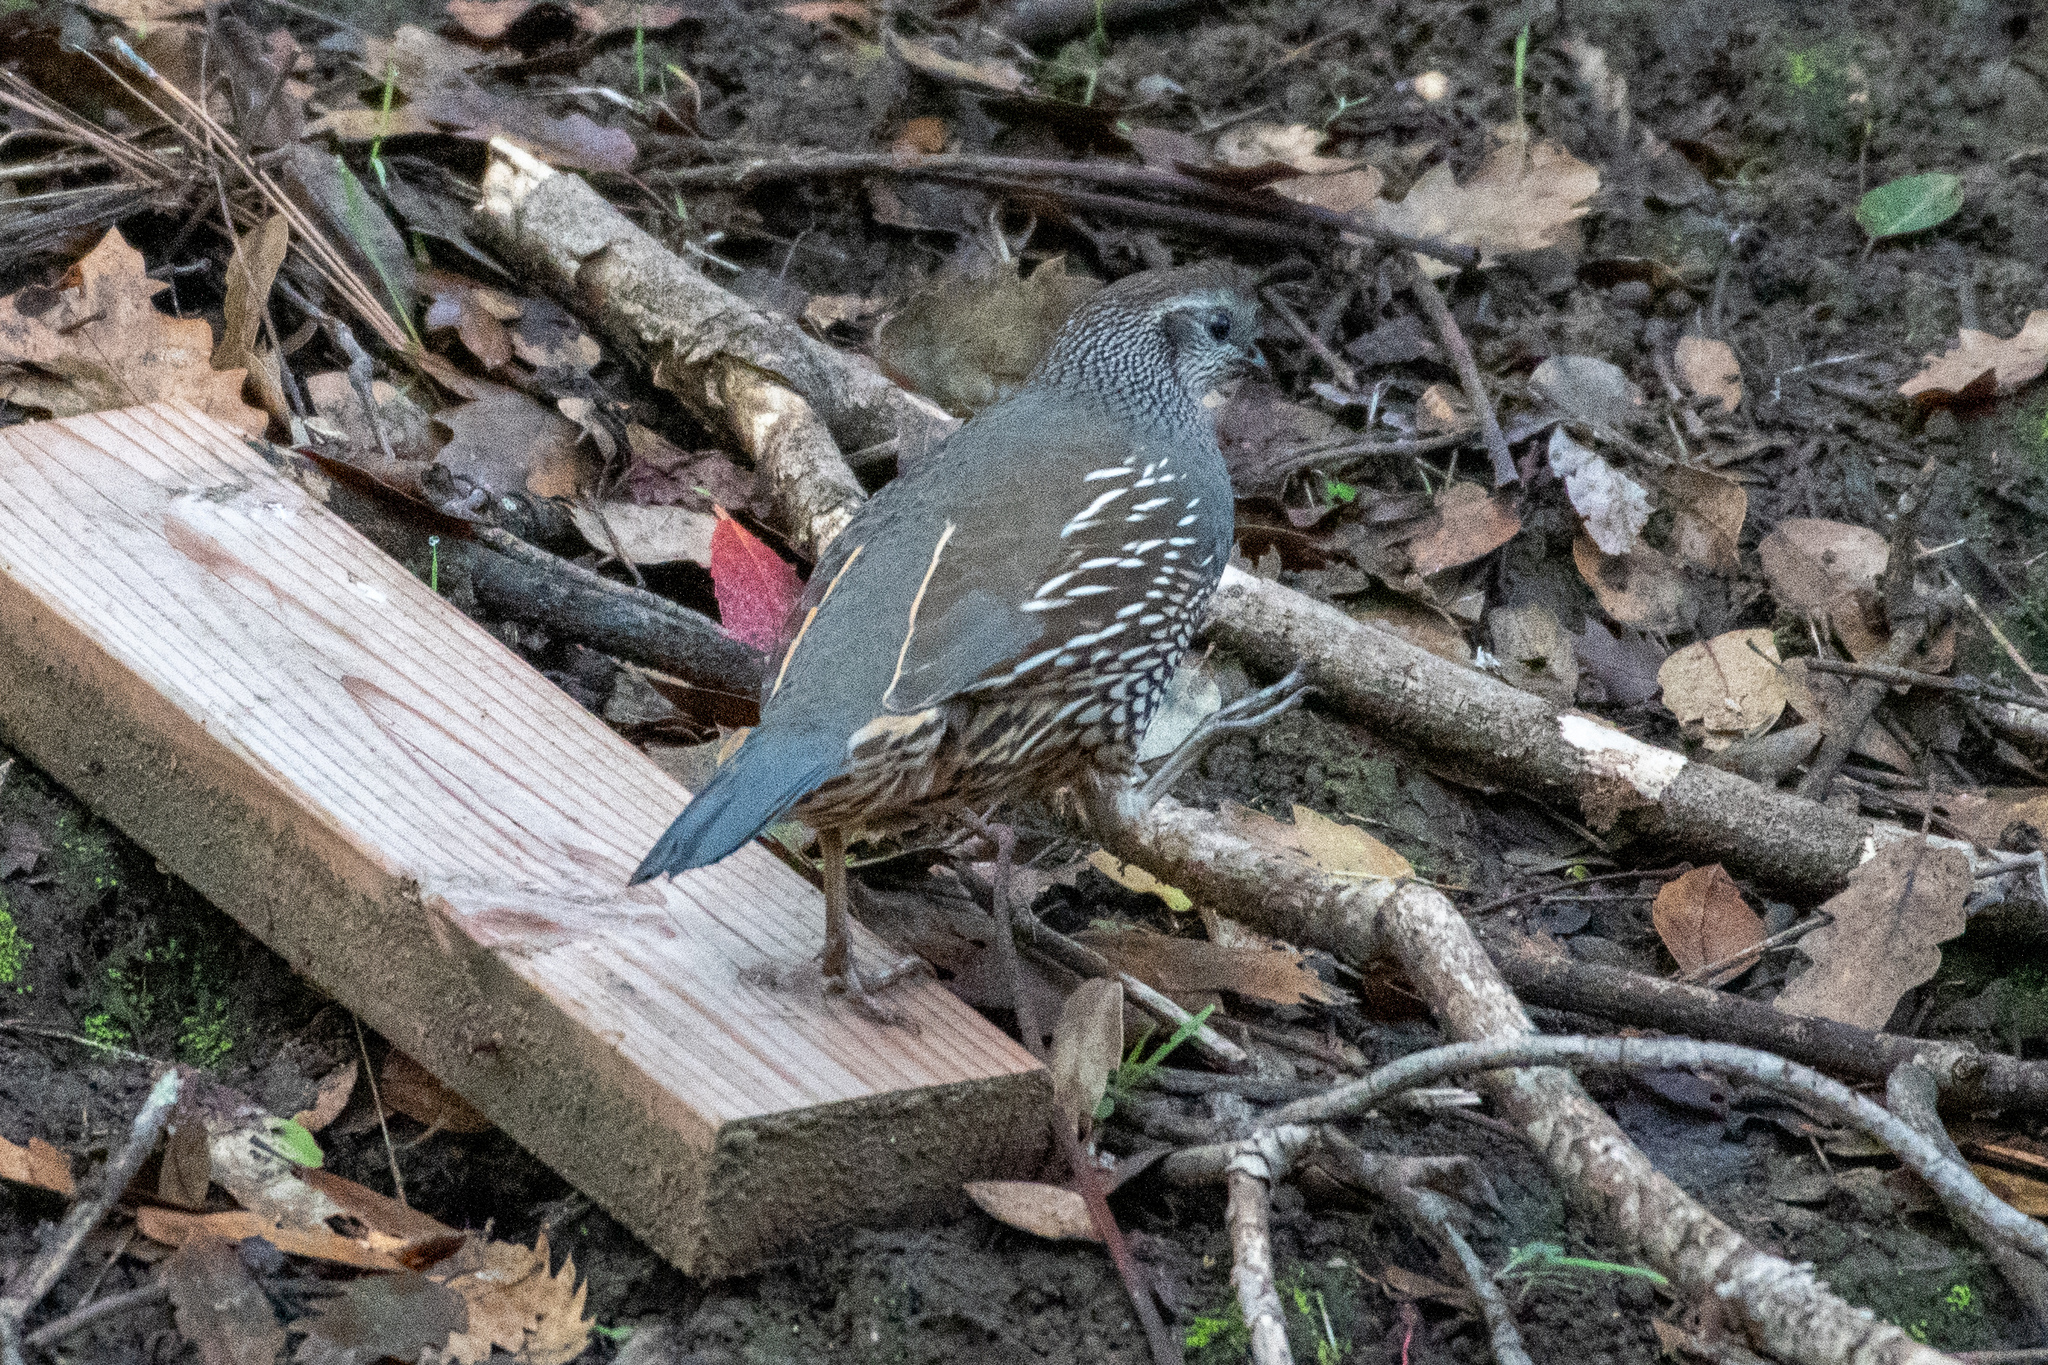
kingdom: Animalia
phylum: Chordata
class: Aves
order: Galliformes
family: Odontophoridae
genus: Callipepla
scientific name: Callipepla californica
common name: California quail
